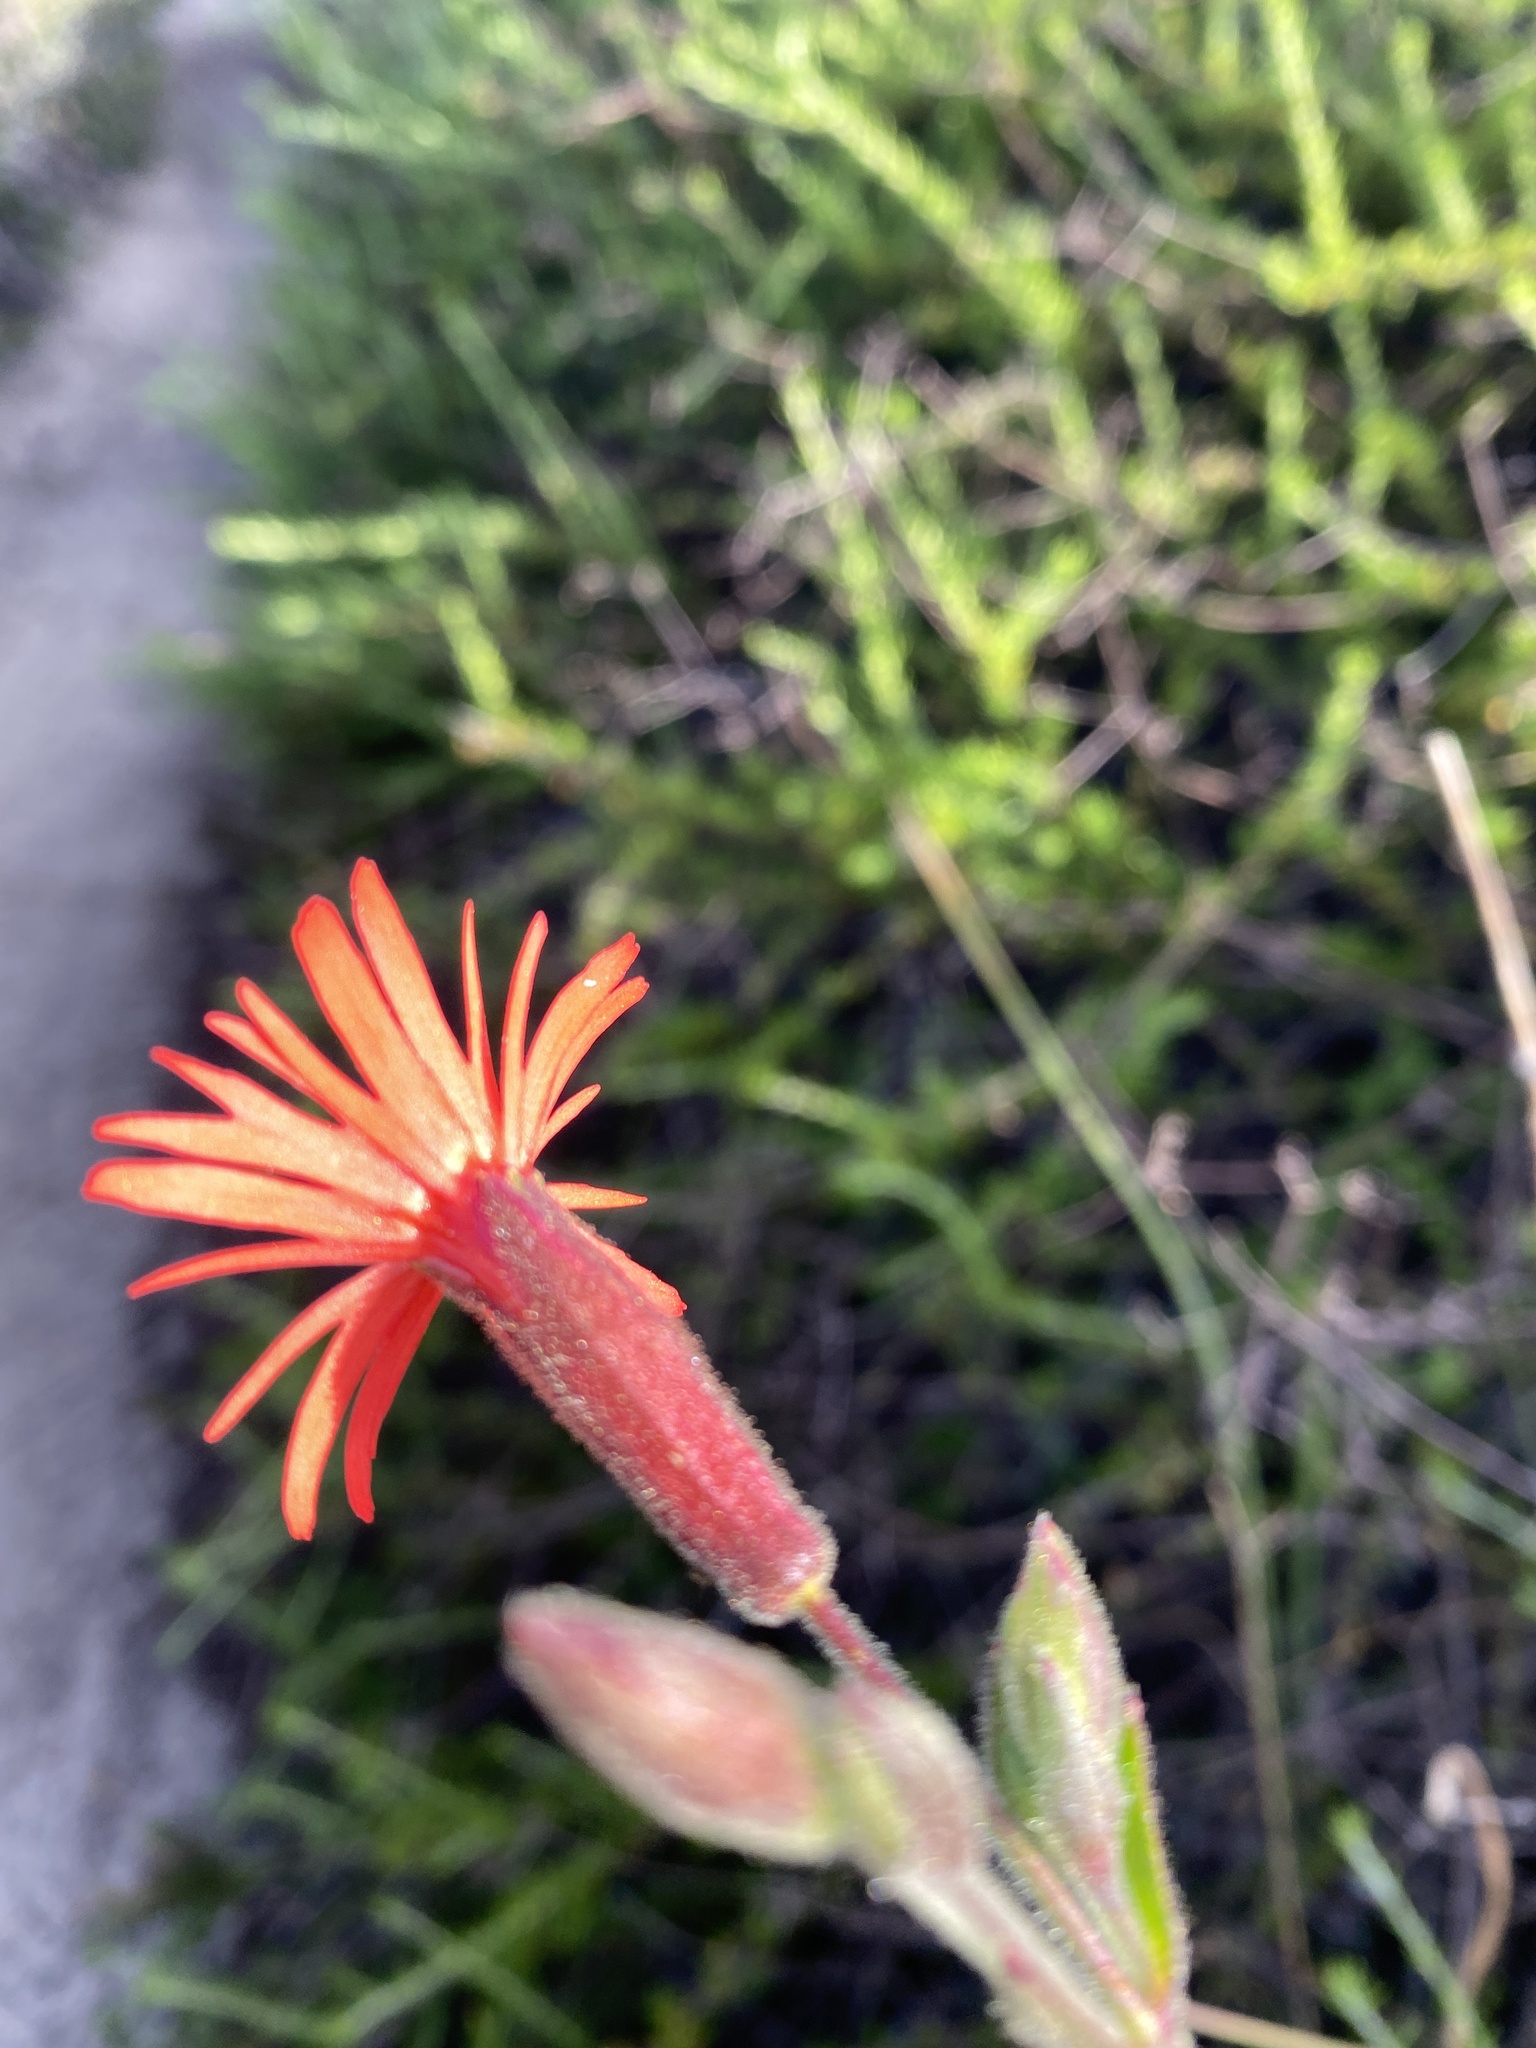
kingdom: Plantae
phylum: Tracheophyta
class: Magnoliopsida
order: Caryophyllales
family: Caryophyllaceae
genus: Silene
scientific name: Silene laciniata
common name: Indian-pink
